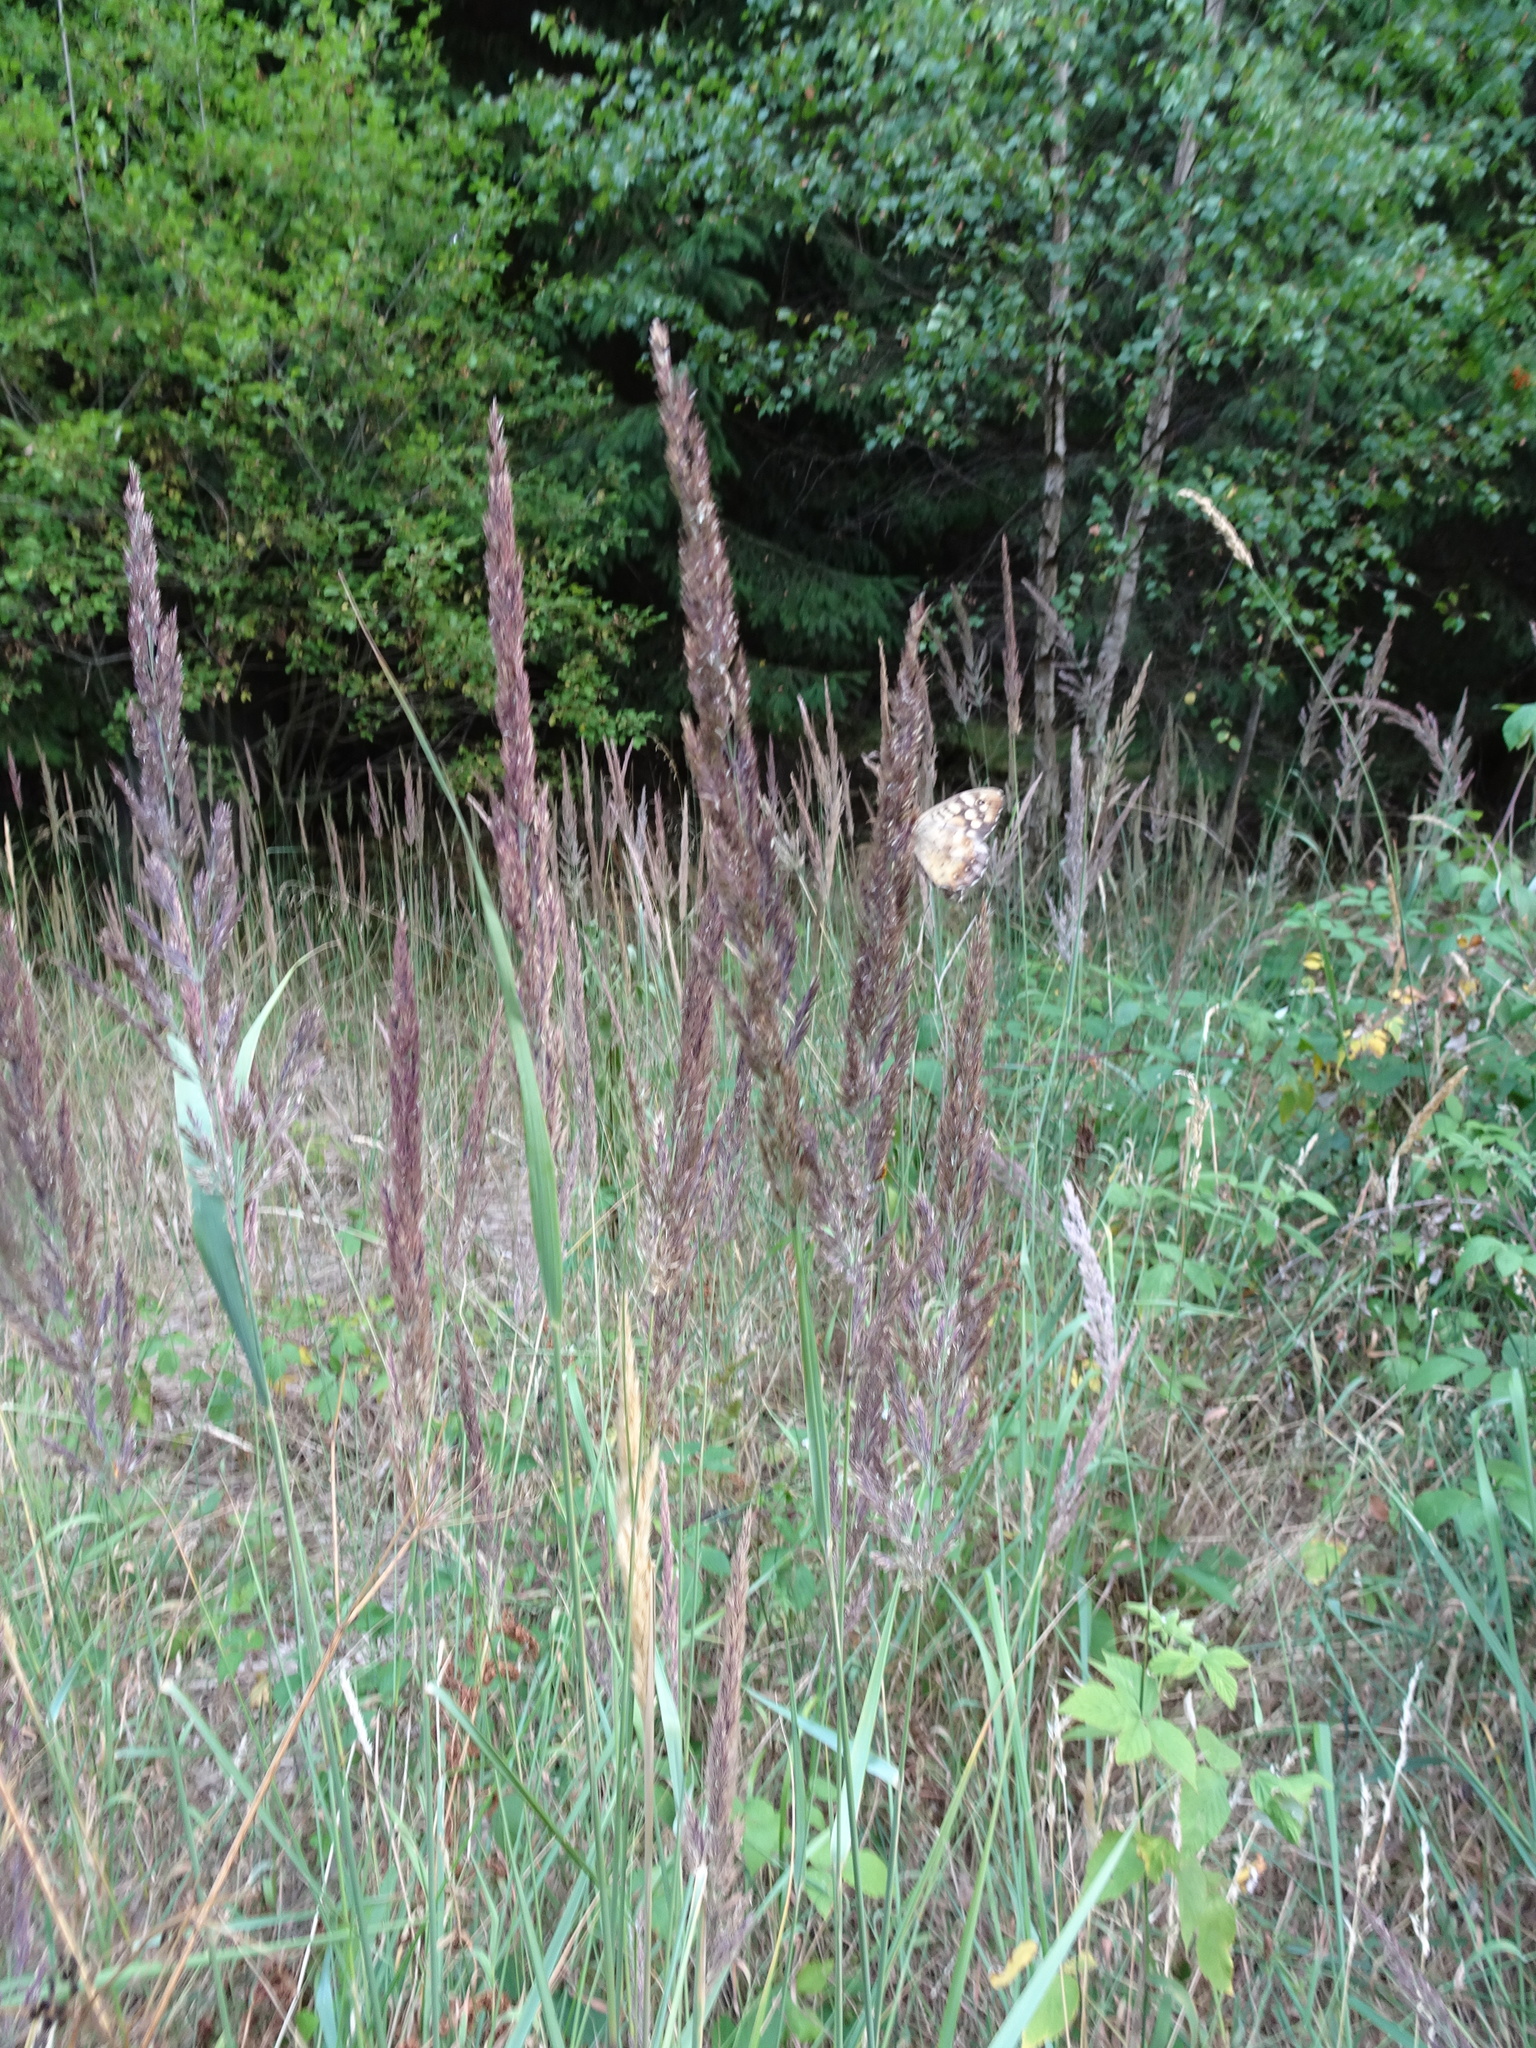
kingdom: Plantae
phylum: Tracheophyta
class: Liliopsida
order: Poales
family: Poaceae
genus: Calamagrostis
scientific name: Calamagrostis epigejos
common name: Wood small-reed
